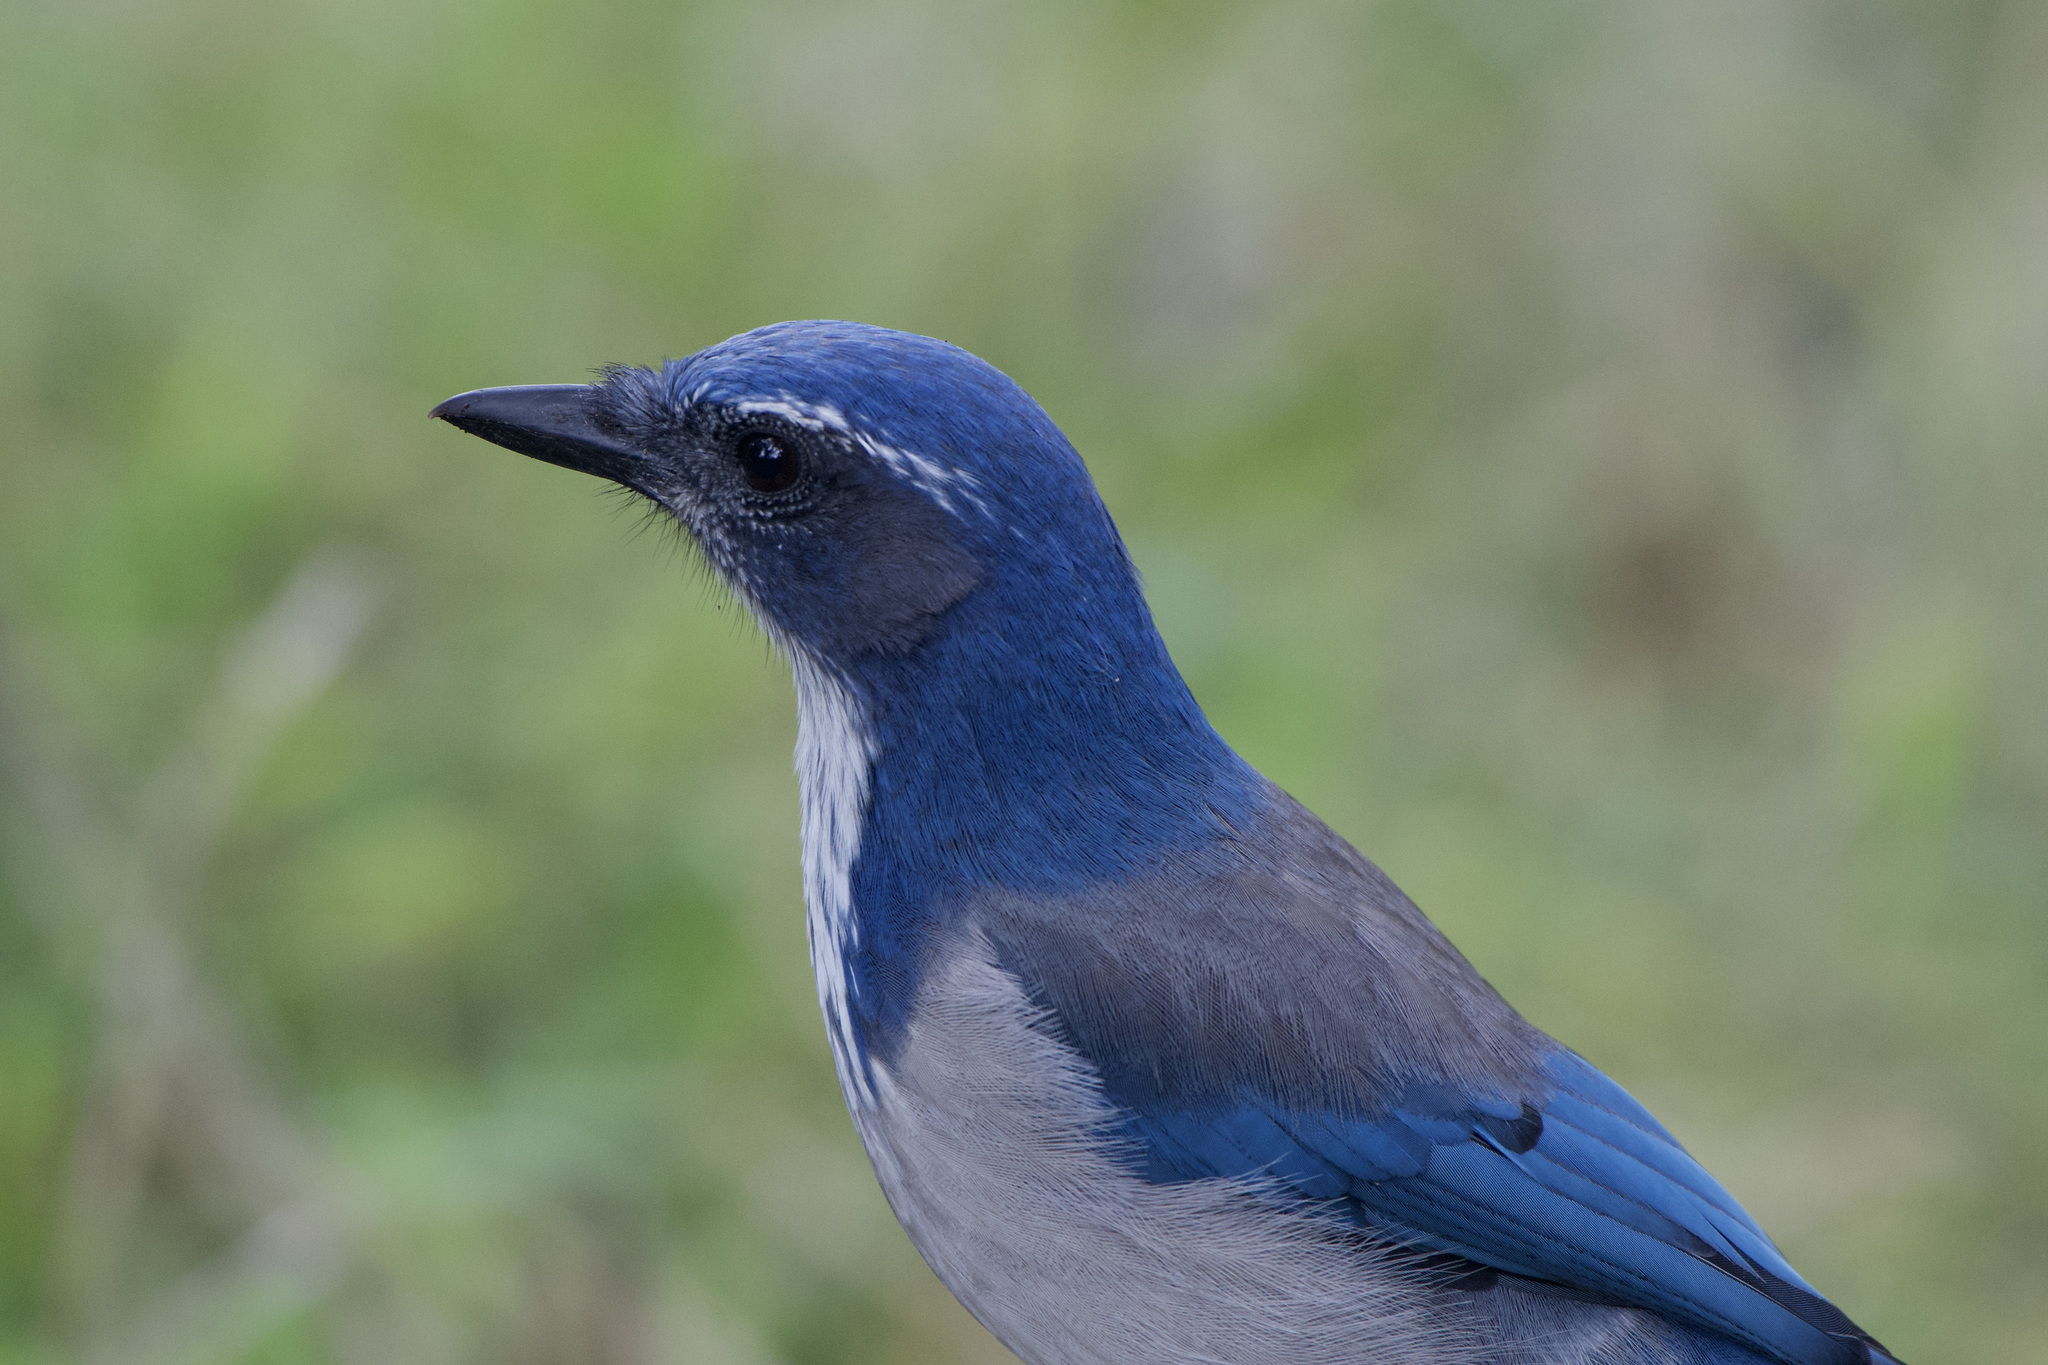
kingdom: Animalia
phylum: Chordata
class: Aves
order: Passeriformes
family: Corvidae
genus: Aphelocoma
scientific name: Aphelocoma californica
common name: California scrub-jay
